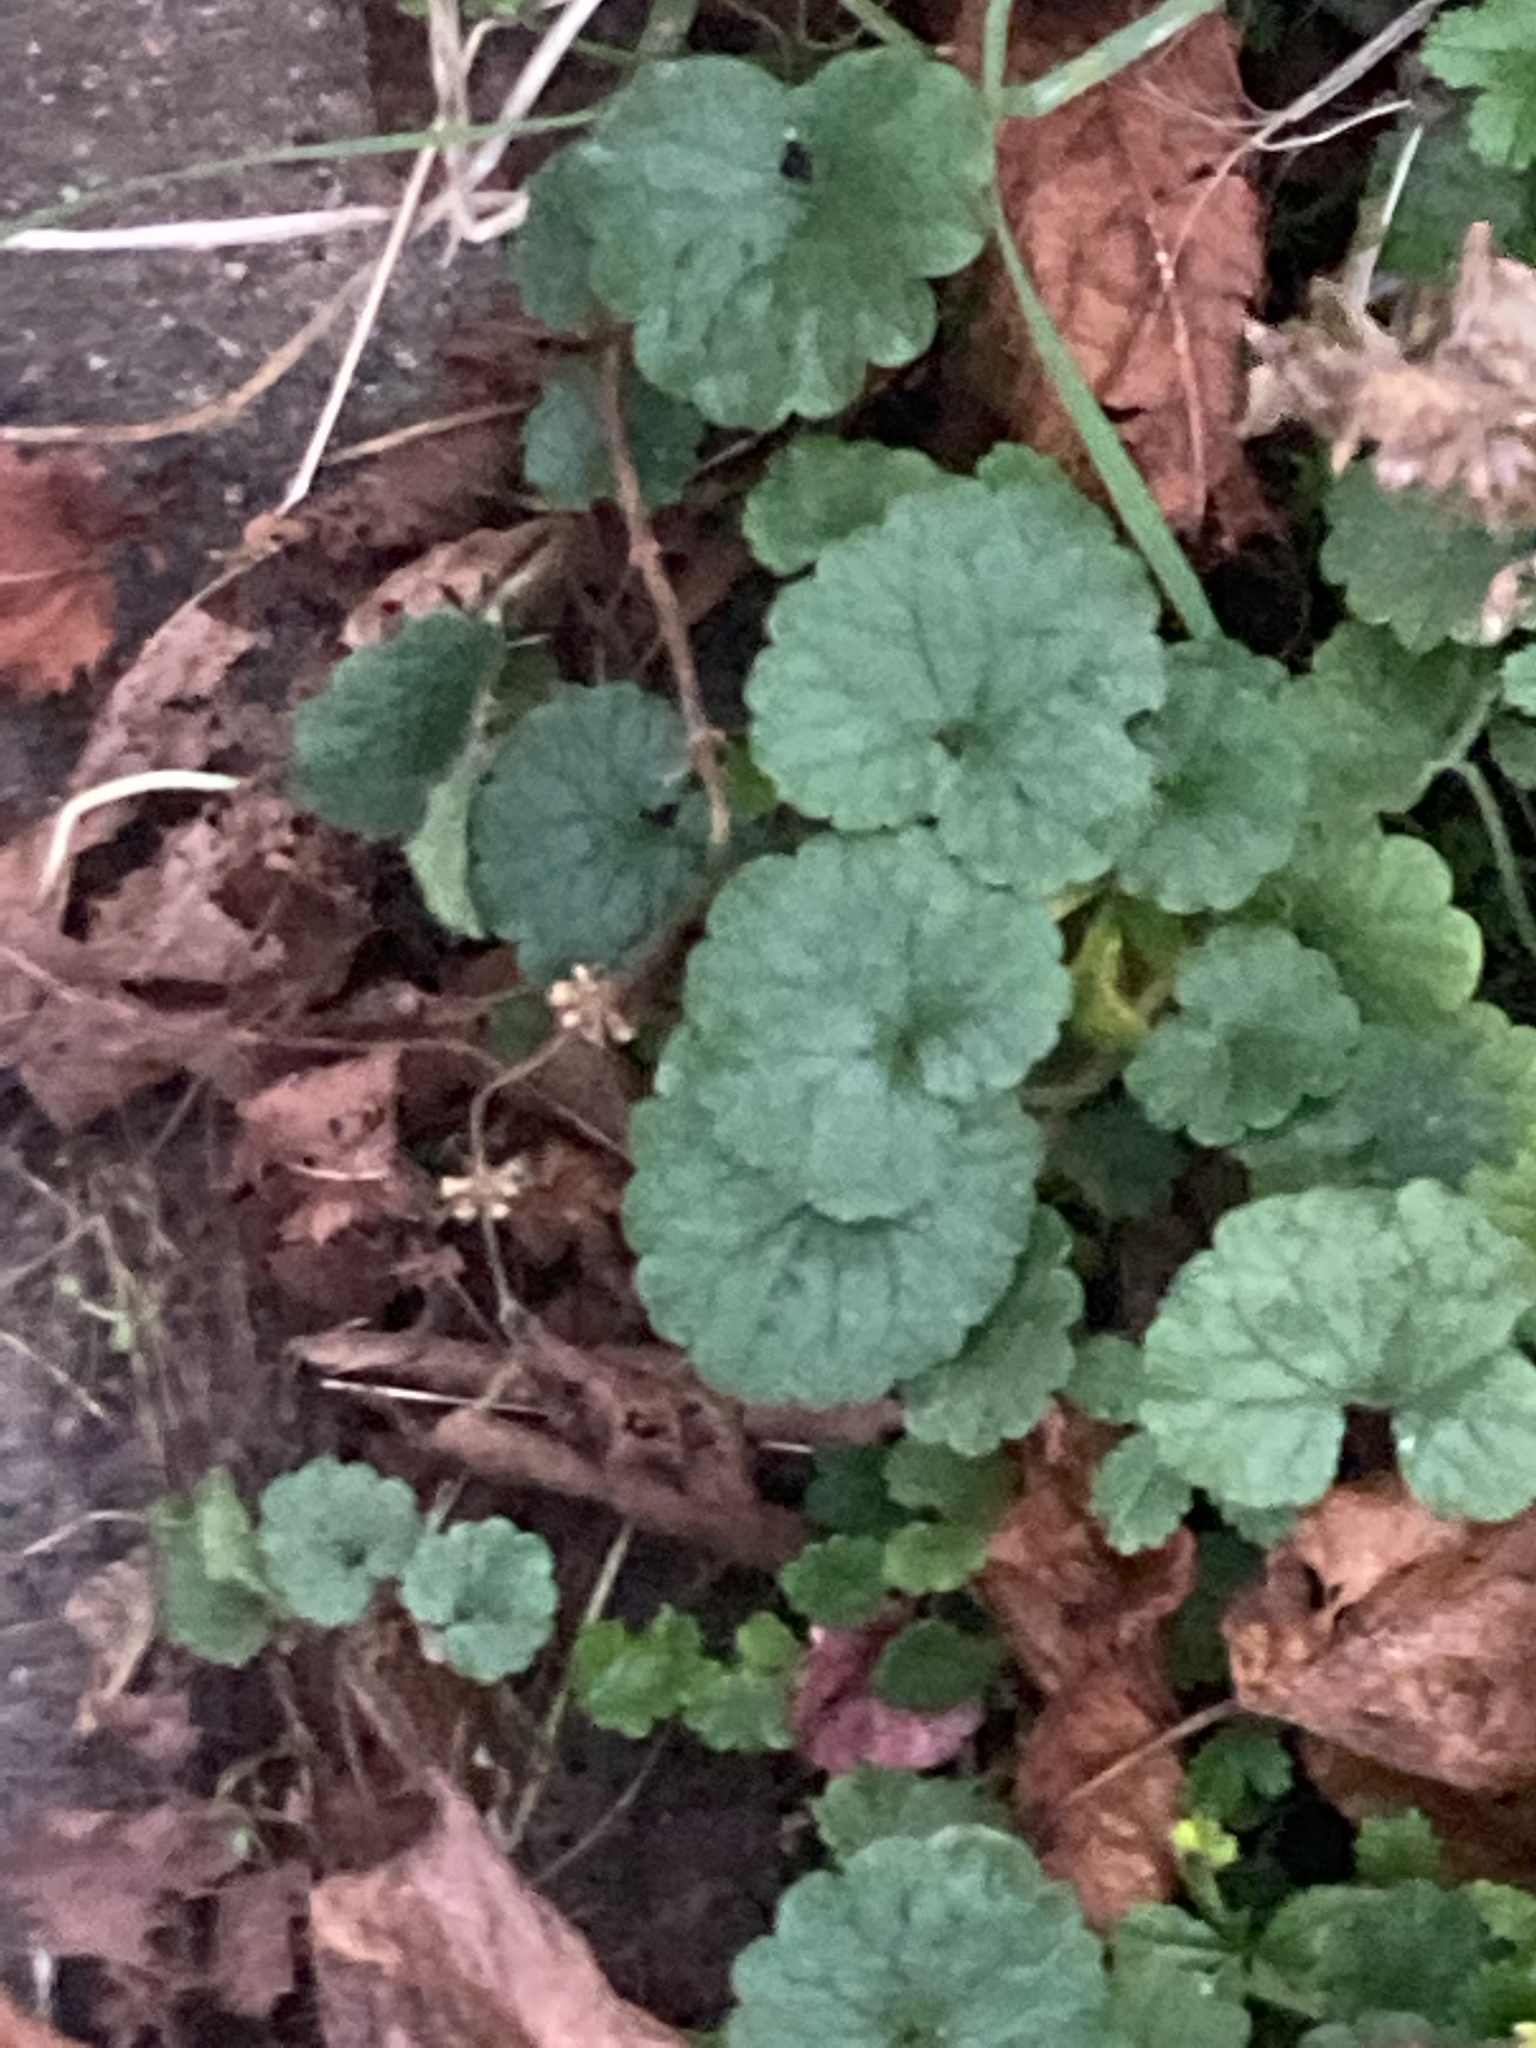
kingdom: Plantae
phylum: Tracheophyta
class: Magnoliopsida
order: Lamiales
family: Lamiaceae
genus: Glechoma
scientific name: Glechoma hederacea
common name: Ground ivy
